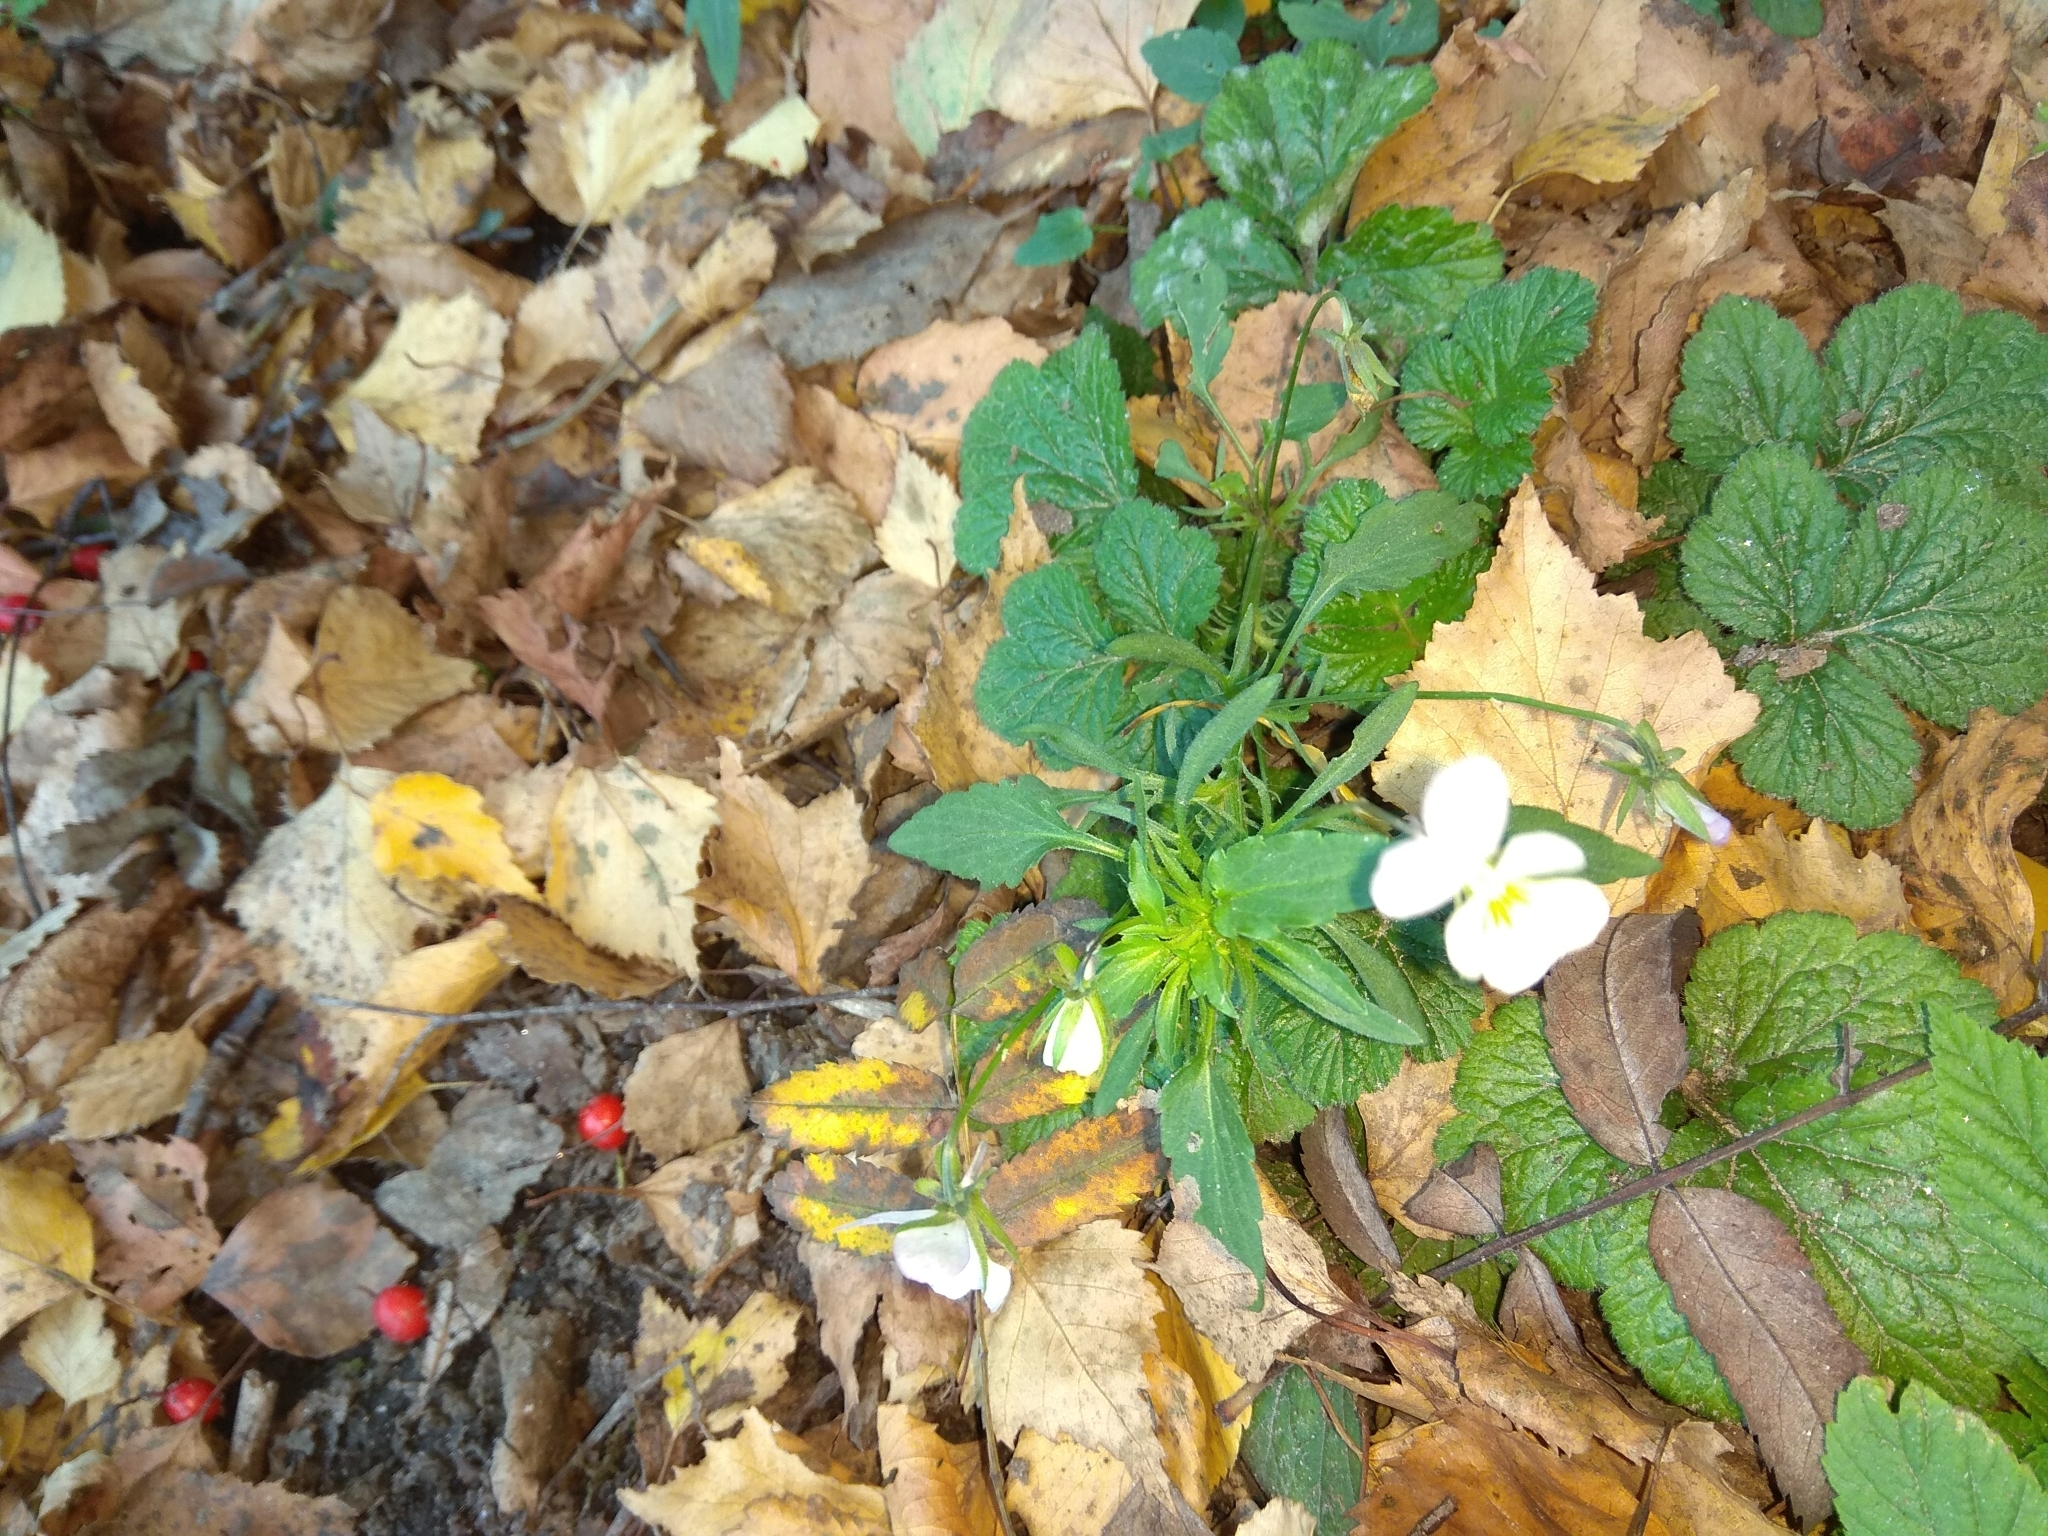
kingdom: Plantae
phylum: Tracheophyta
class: Magnoliopsida
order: Malpighiales
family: Violaceae
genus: Viola
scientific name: Viola arvensis
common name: Field pansy
